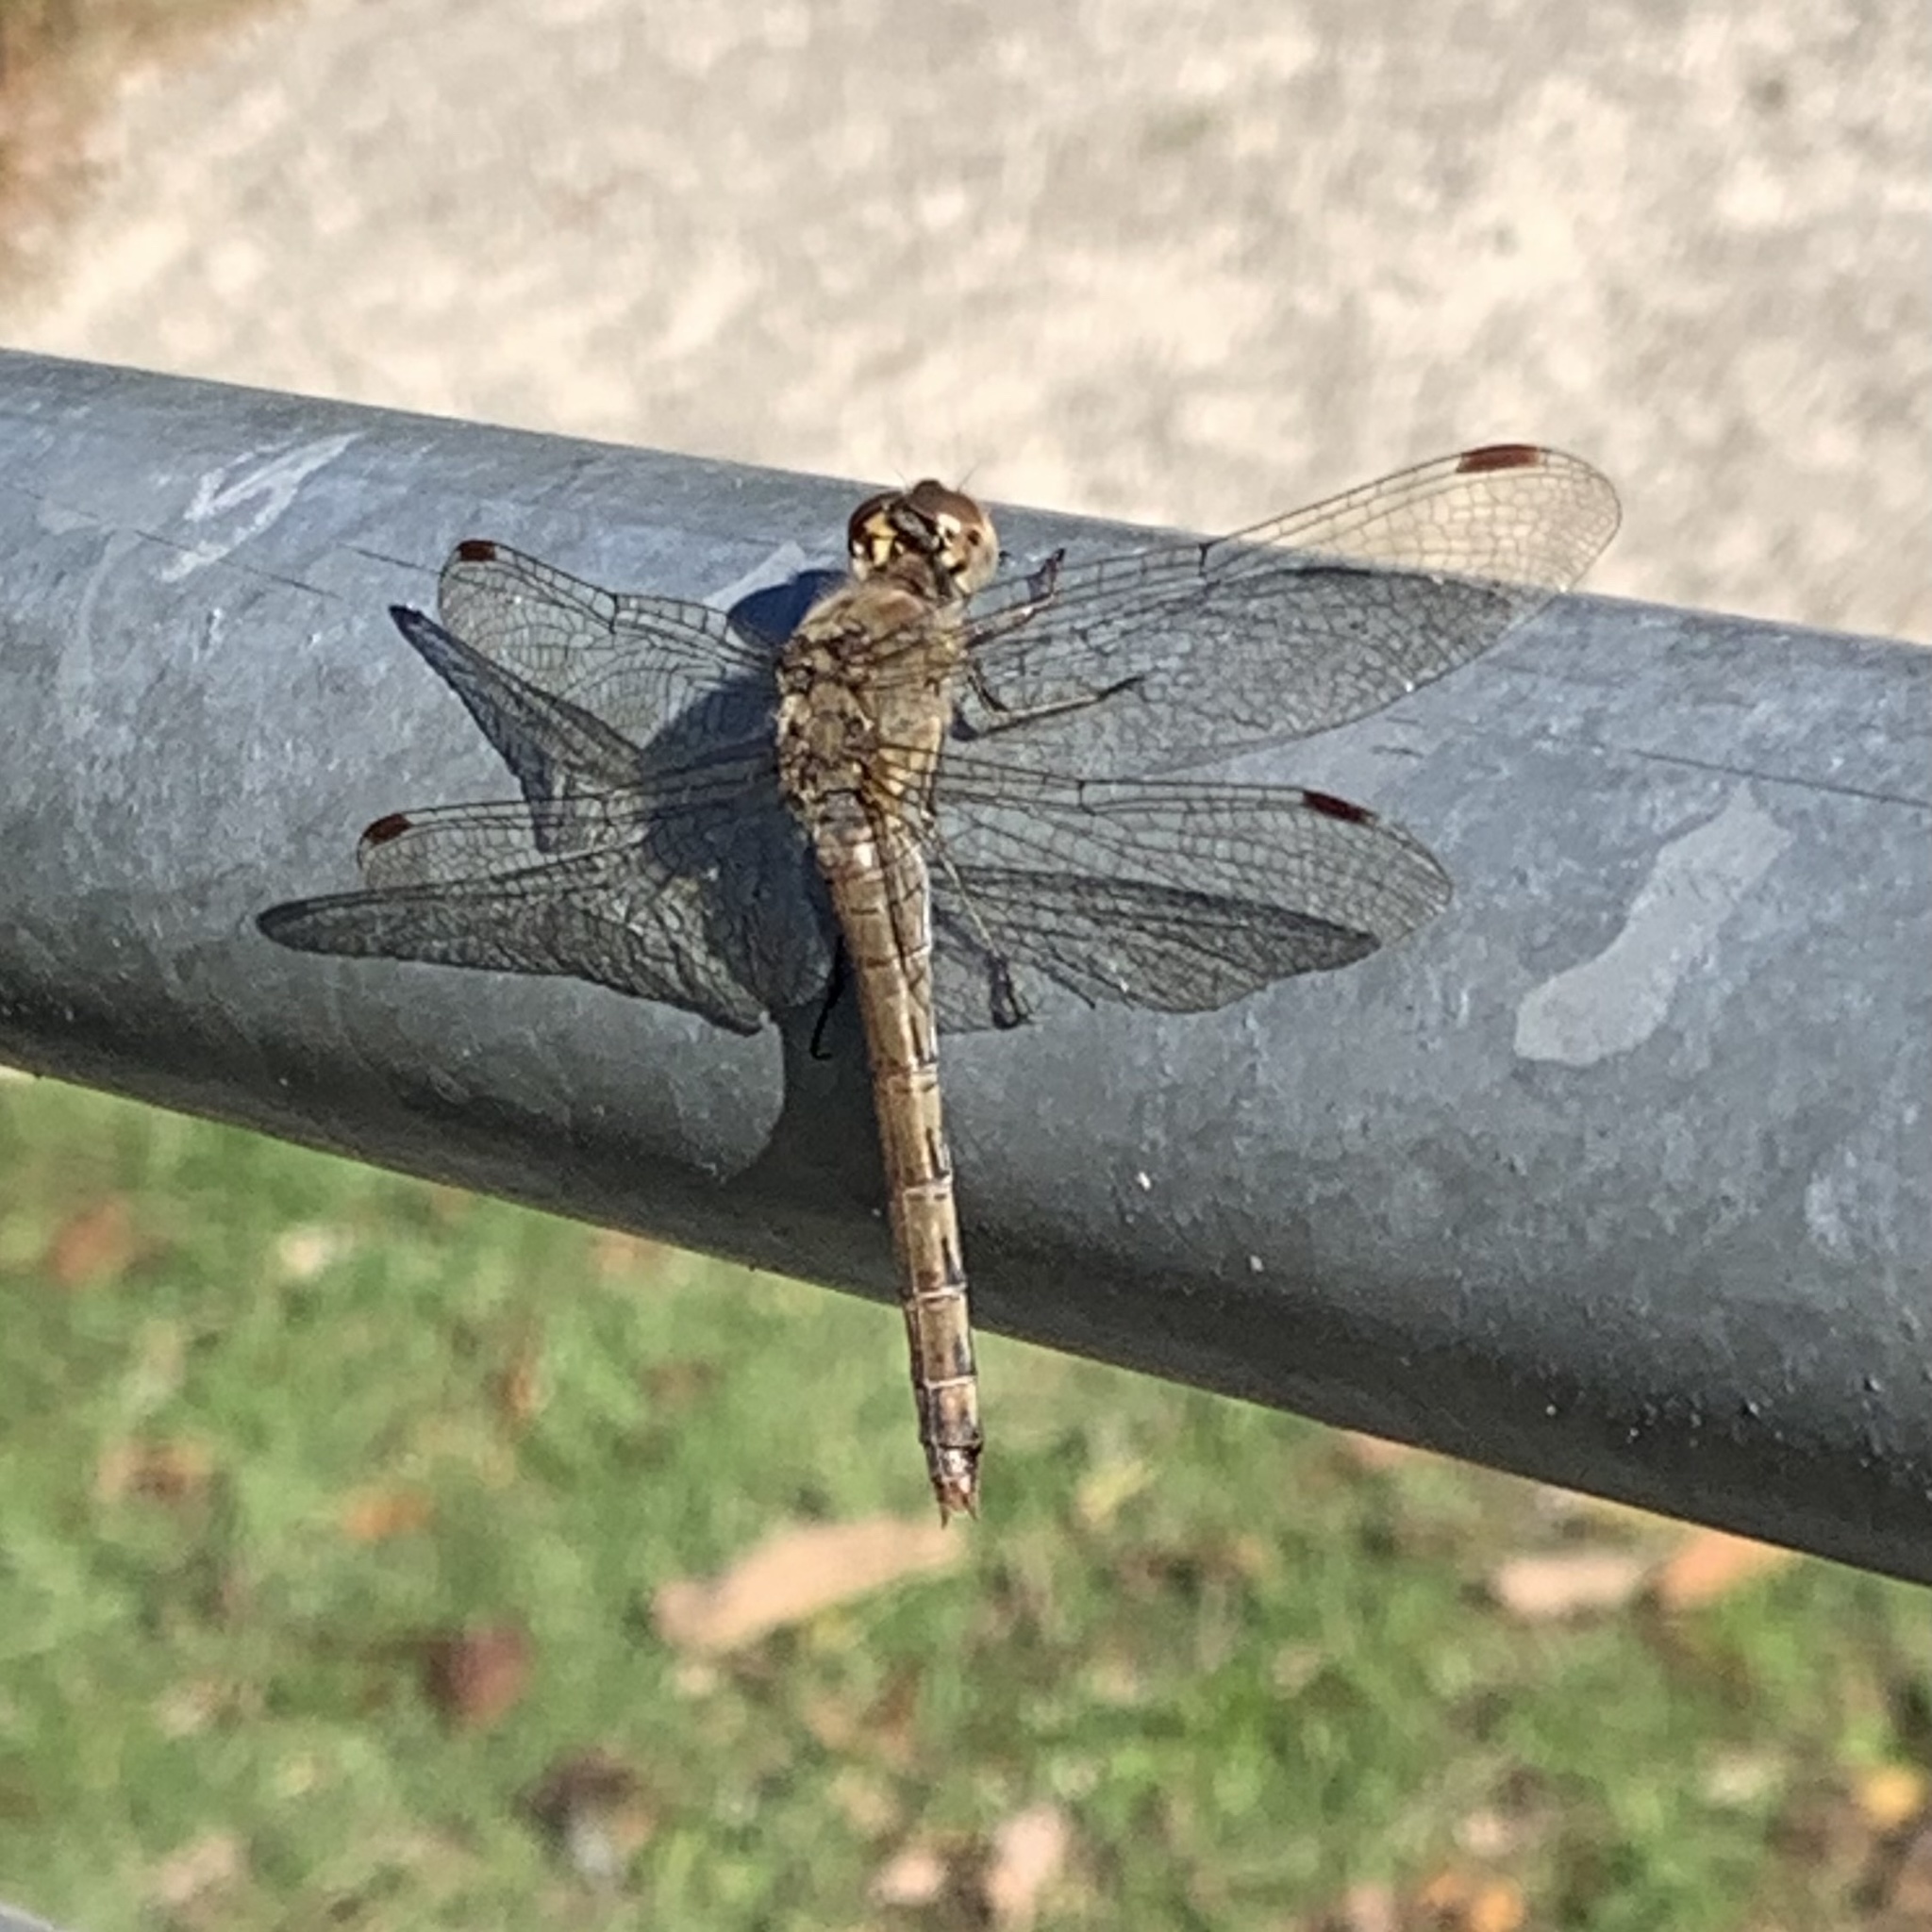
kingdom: Animalia
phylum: Arthropoda
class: Insecta
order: Odonata
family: Libellulidae
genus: Sympetrum
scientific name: Sympetrum striolatum
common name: Common darter
